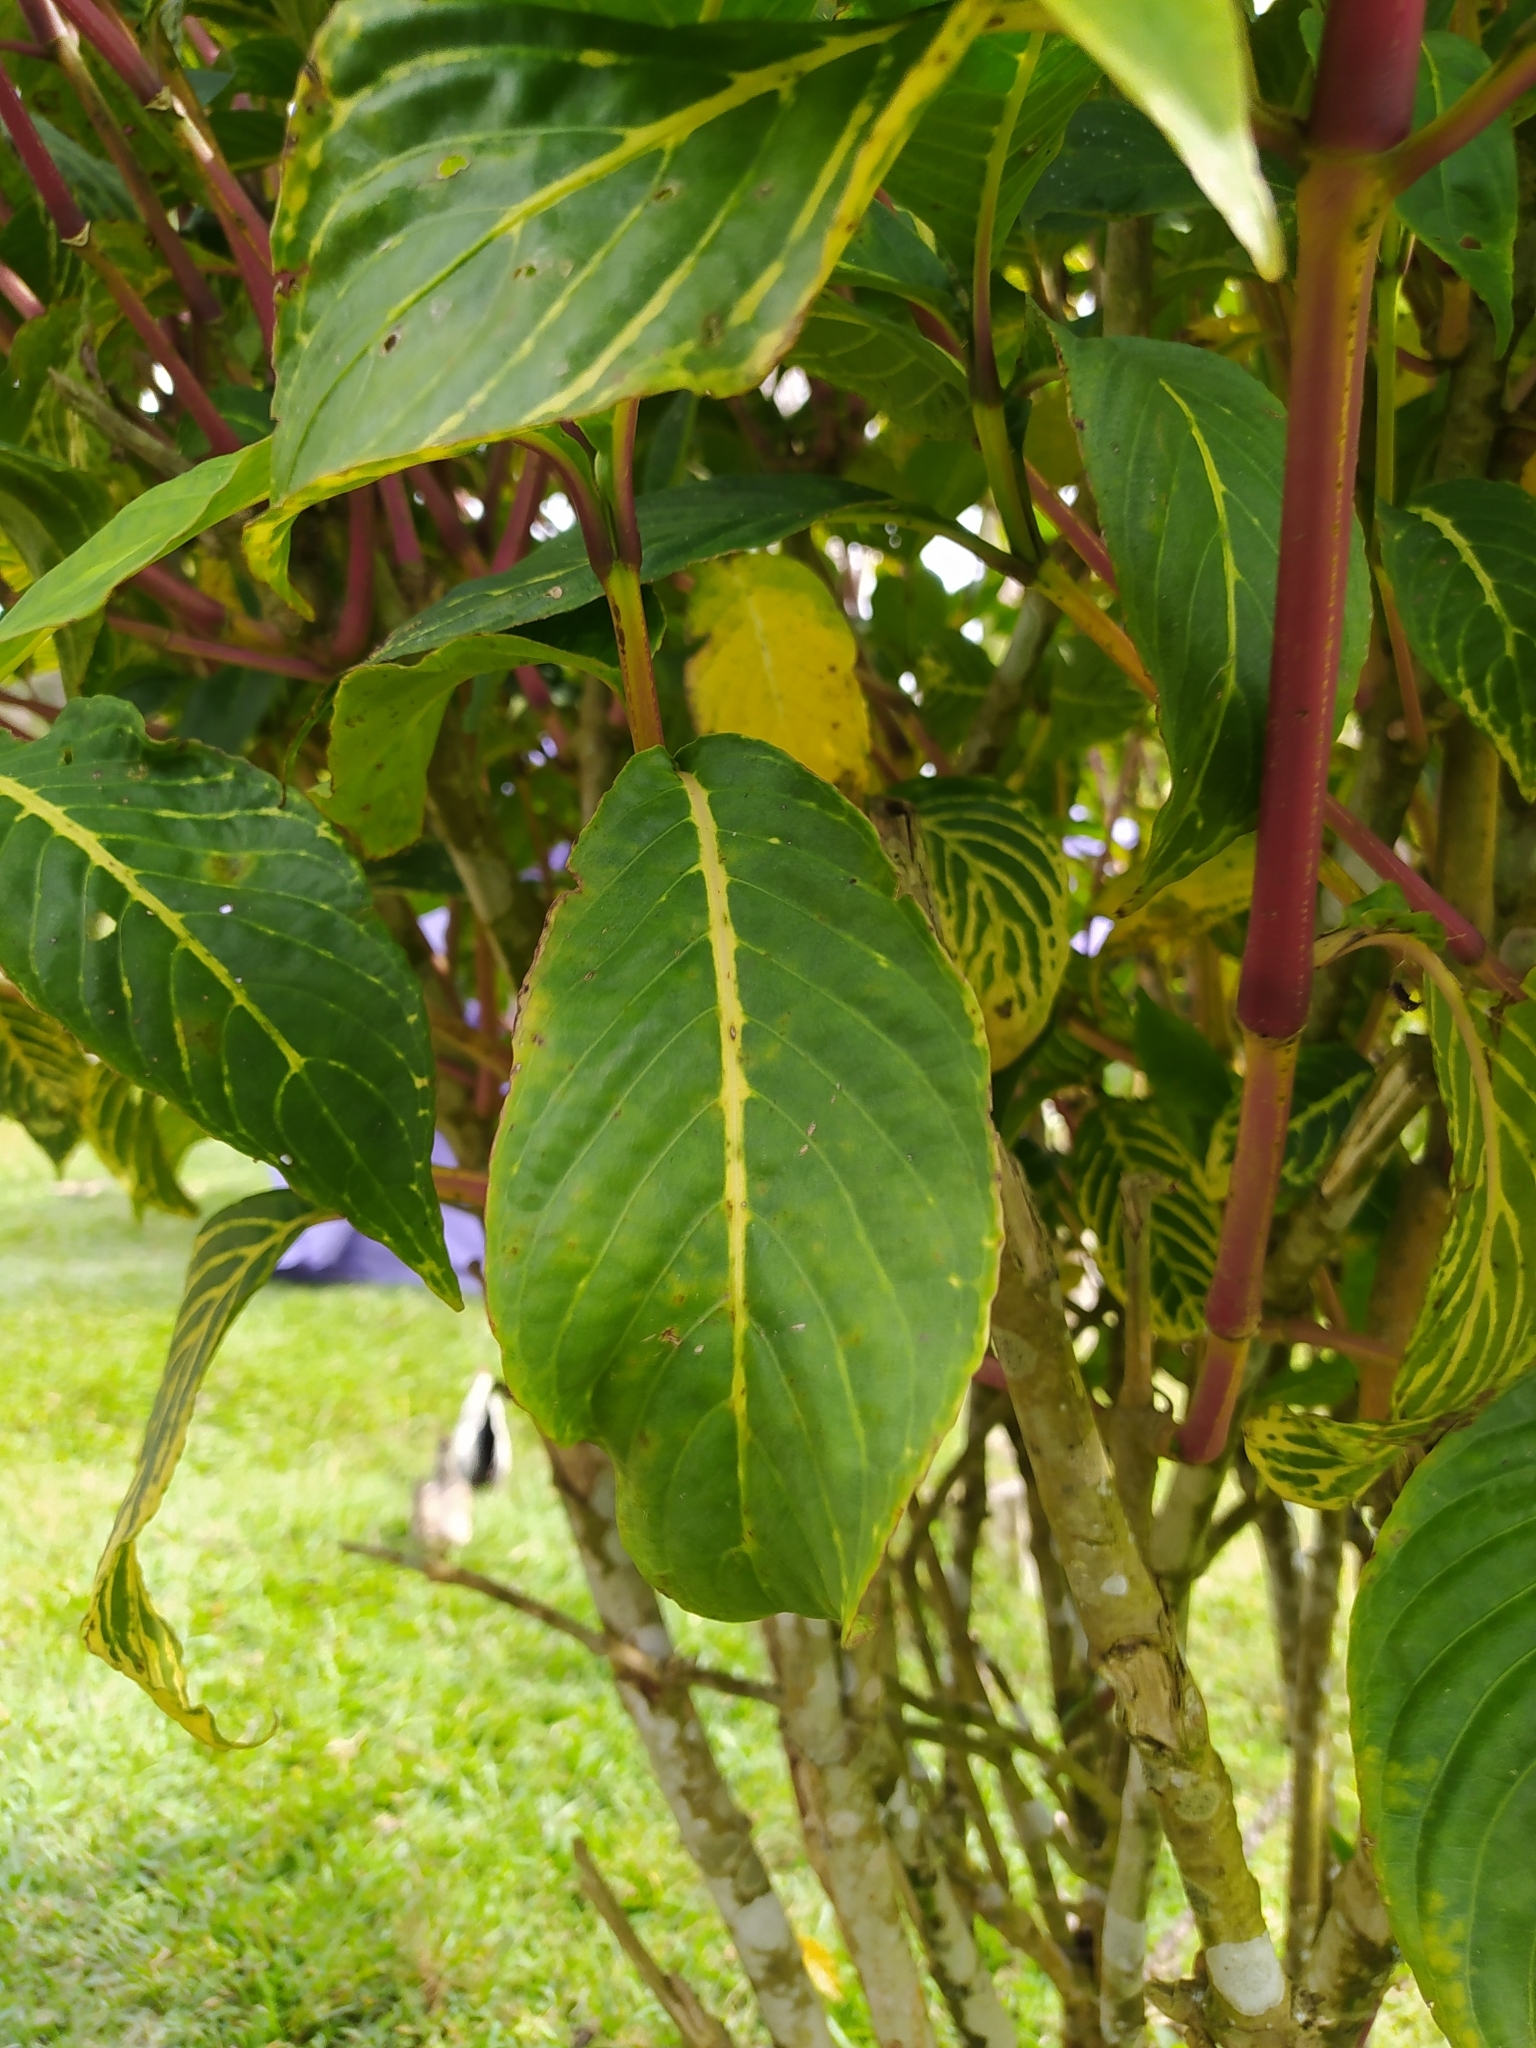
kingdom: Plantae
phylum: Tracheophyta
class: Magnoliopsida
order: Lamiales
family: Acanthaceae
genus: Sanchezia
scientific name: Sanchezia parvibracteata
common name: Sanchezia
